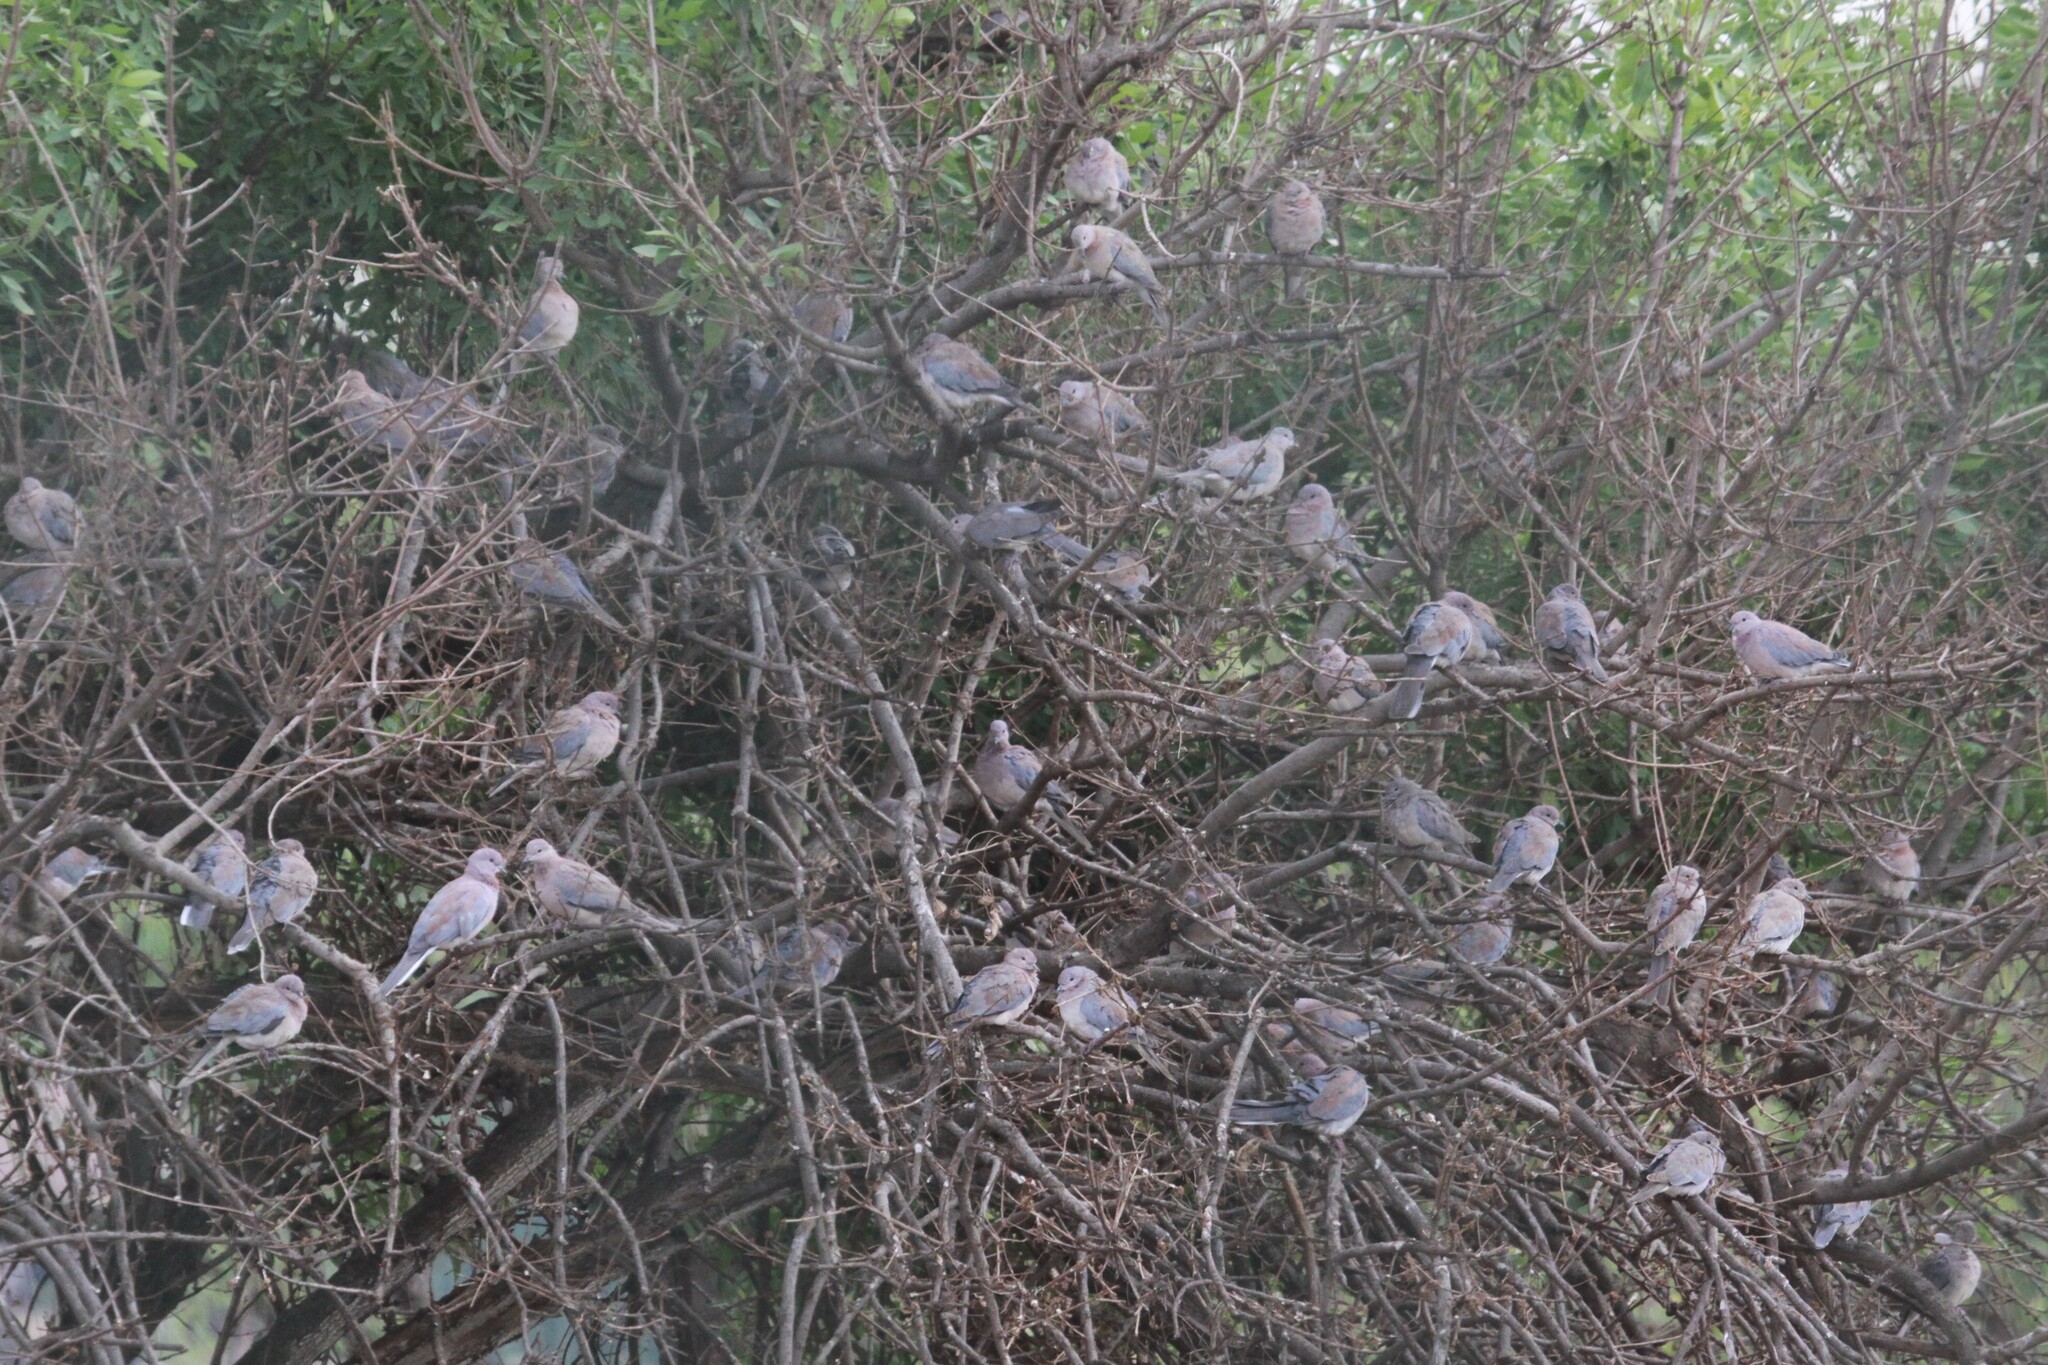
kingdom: Animalia
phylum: Chordata
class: Aves
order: Columbiformes
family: Columbidae
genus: Spilopelia
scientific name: Spilopelia senegalensis
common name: Laughing dove
